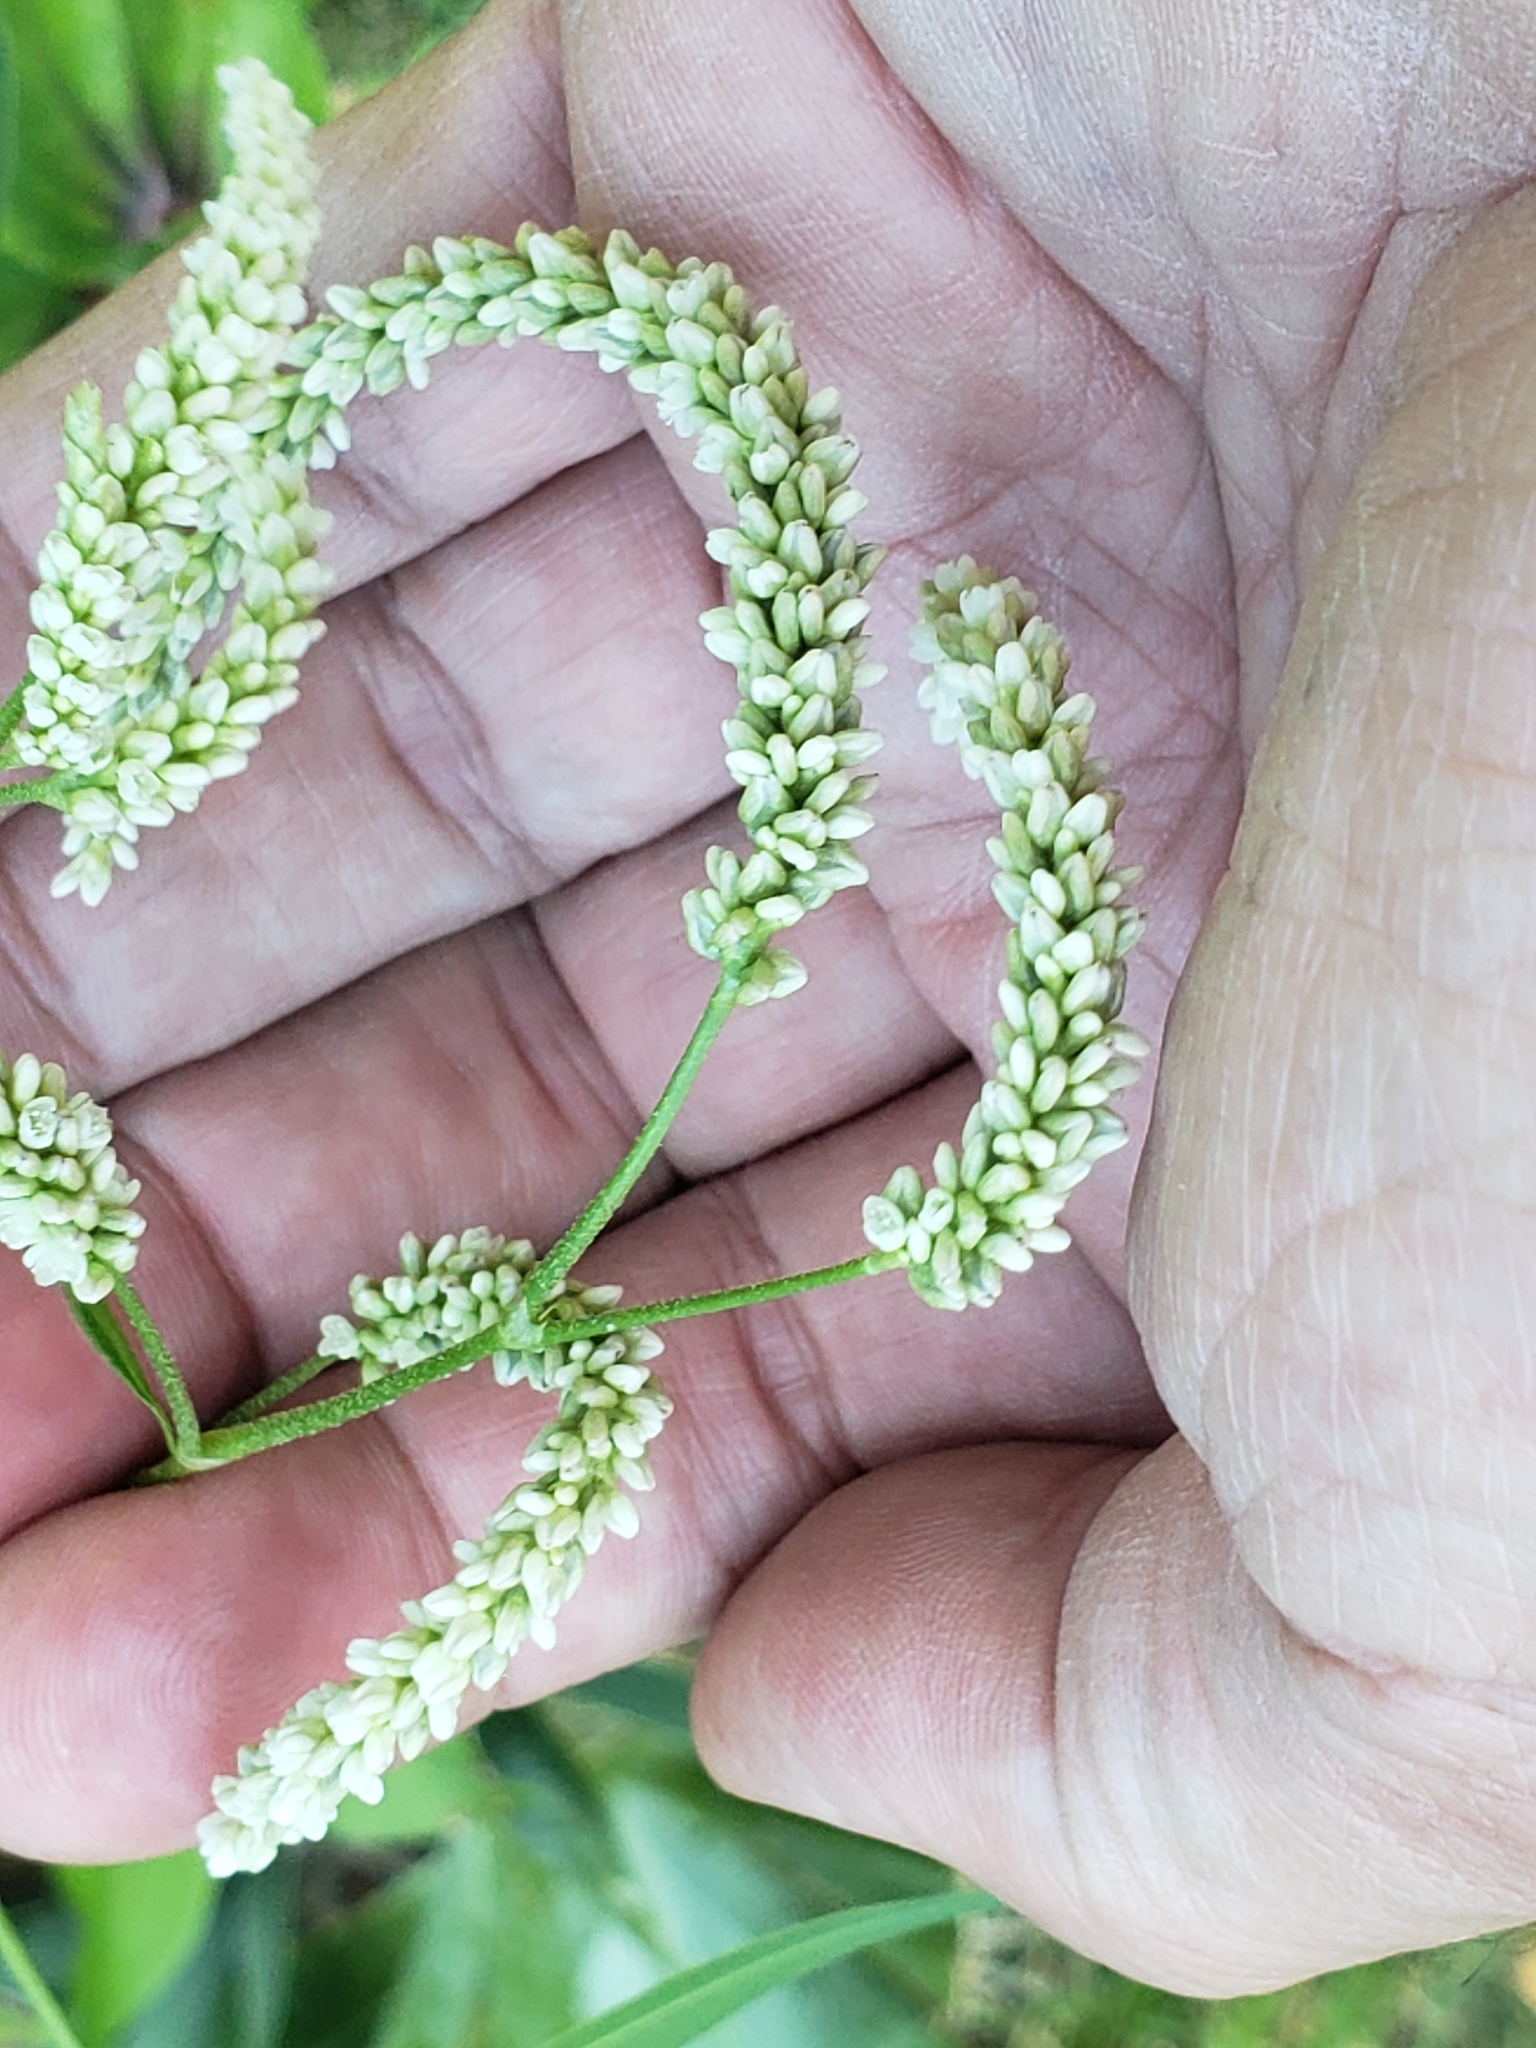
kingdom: Plantae
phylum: Tracheophyta
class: Magnoliopsida
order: Caryophyllales
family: Polygonaceae
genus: Persicaria
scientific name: Persicaria lapathifolia
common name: Curlytop knotweed
